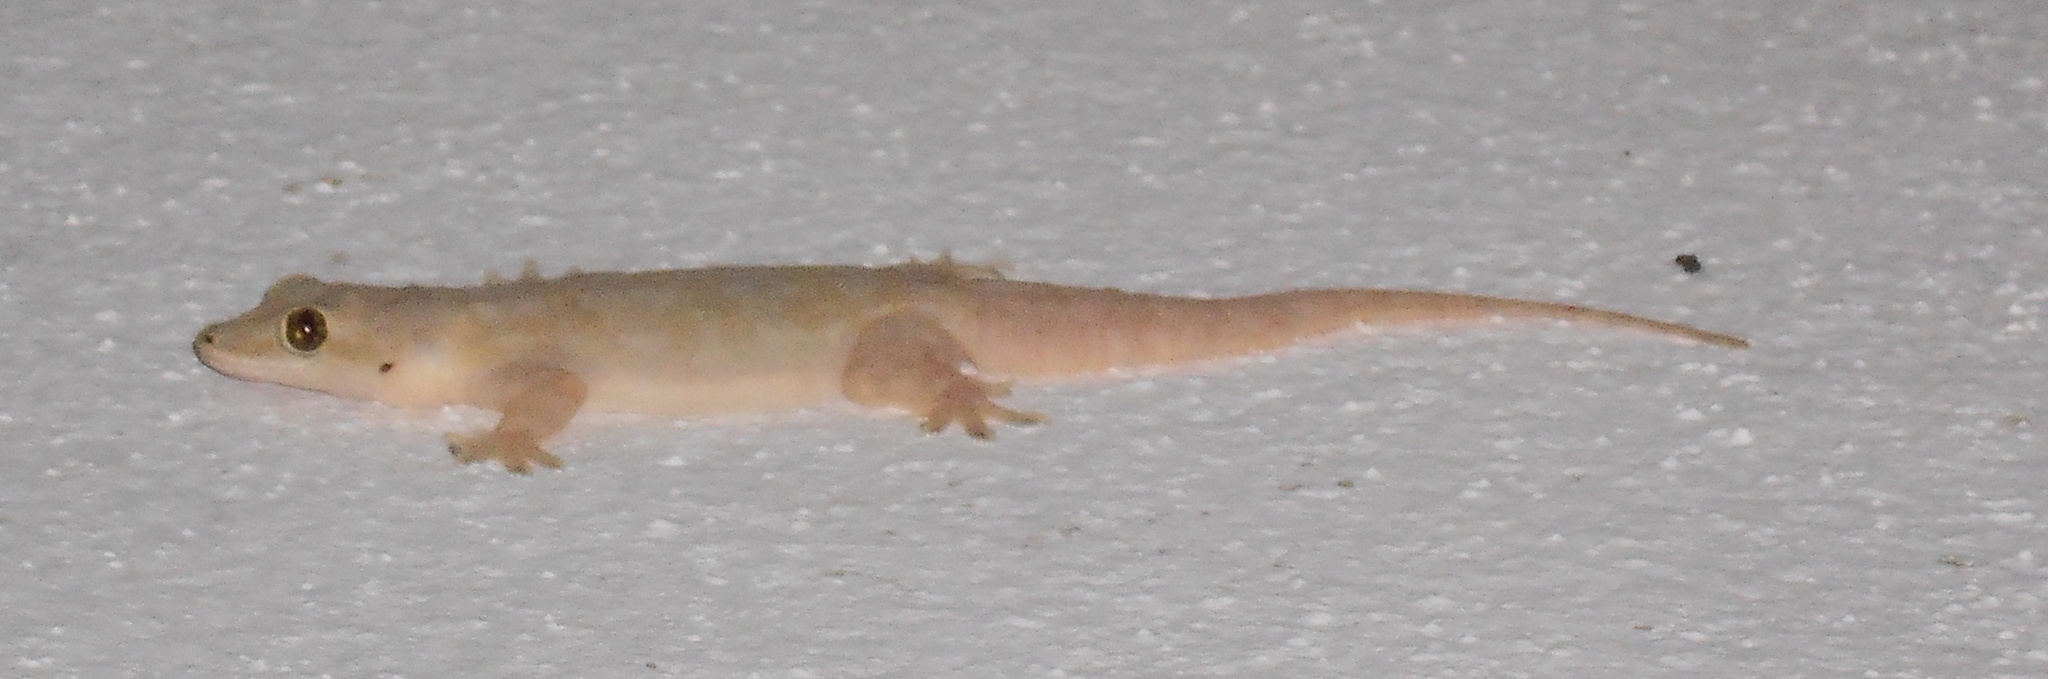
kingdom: Animalia
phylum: Chordata
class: Squamata
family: Gekkonidae
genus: Hemidactylus
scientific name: Hemidactylus platyurus
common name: Flat-tailed house gecko
